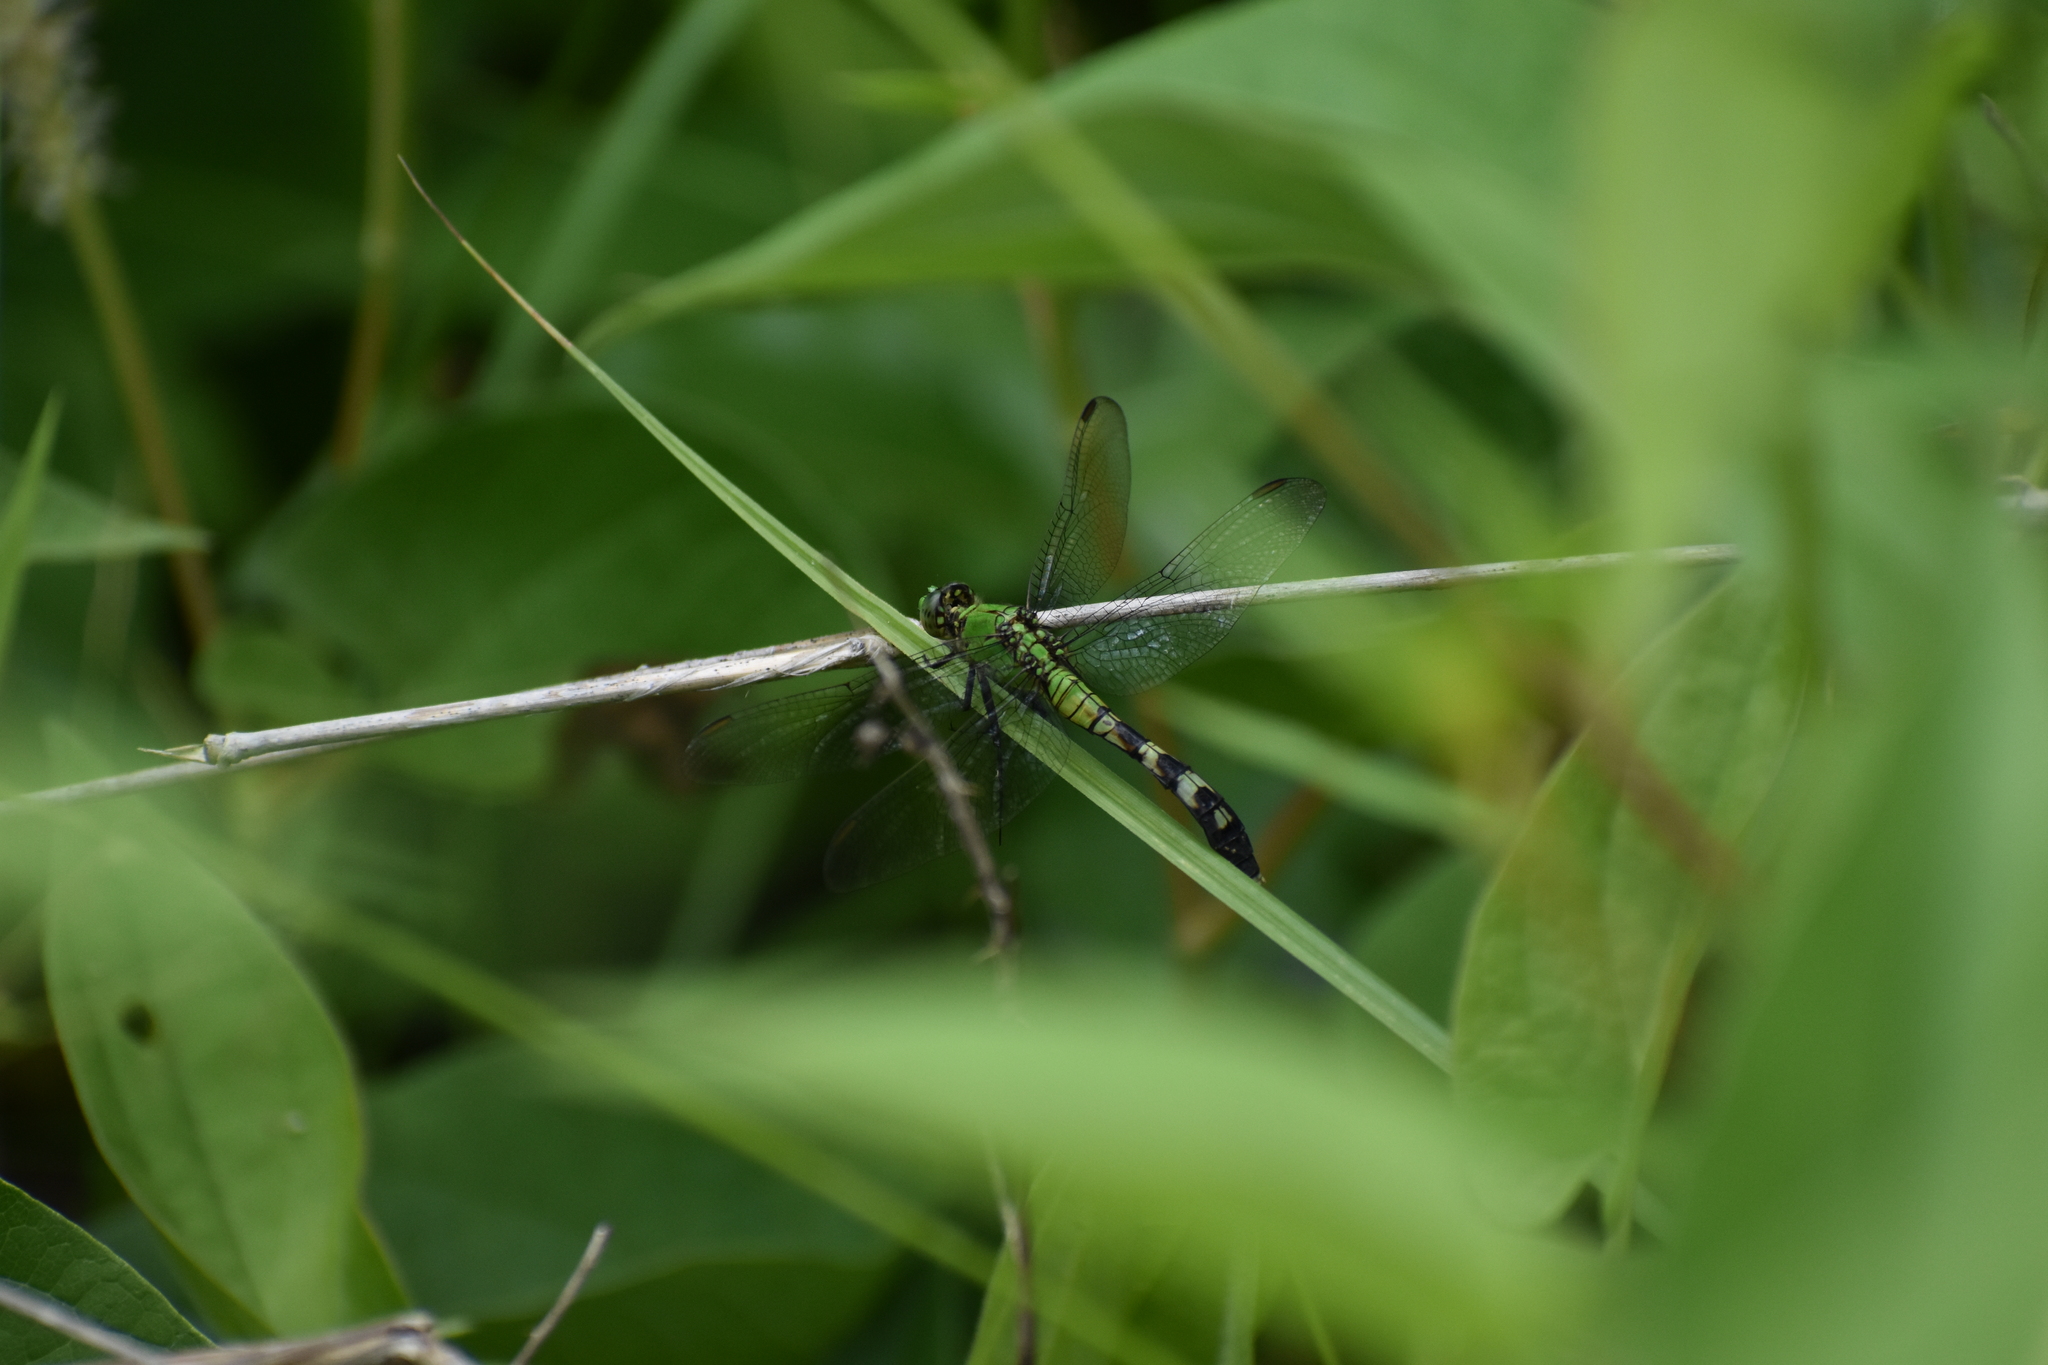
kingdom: Animalia
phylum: Arthropoda
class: Insecta
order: Odonata
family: Libellulidae
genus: Erythemis
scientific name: Erythemis simplicicollis
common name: Eastern pondhawk
